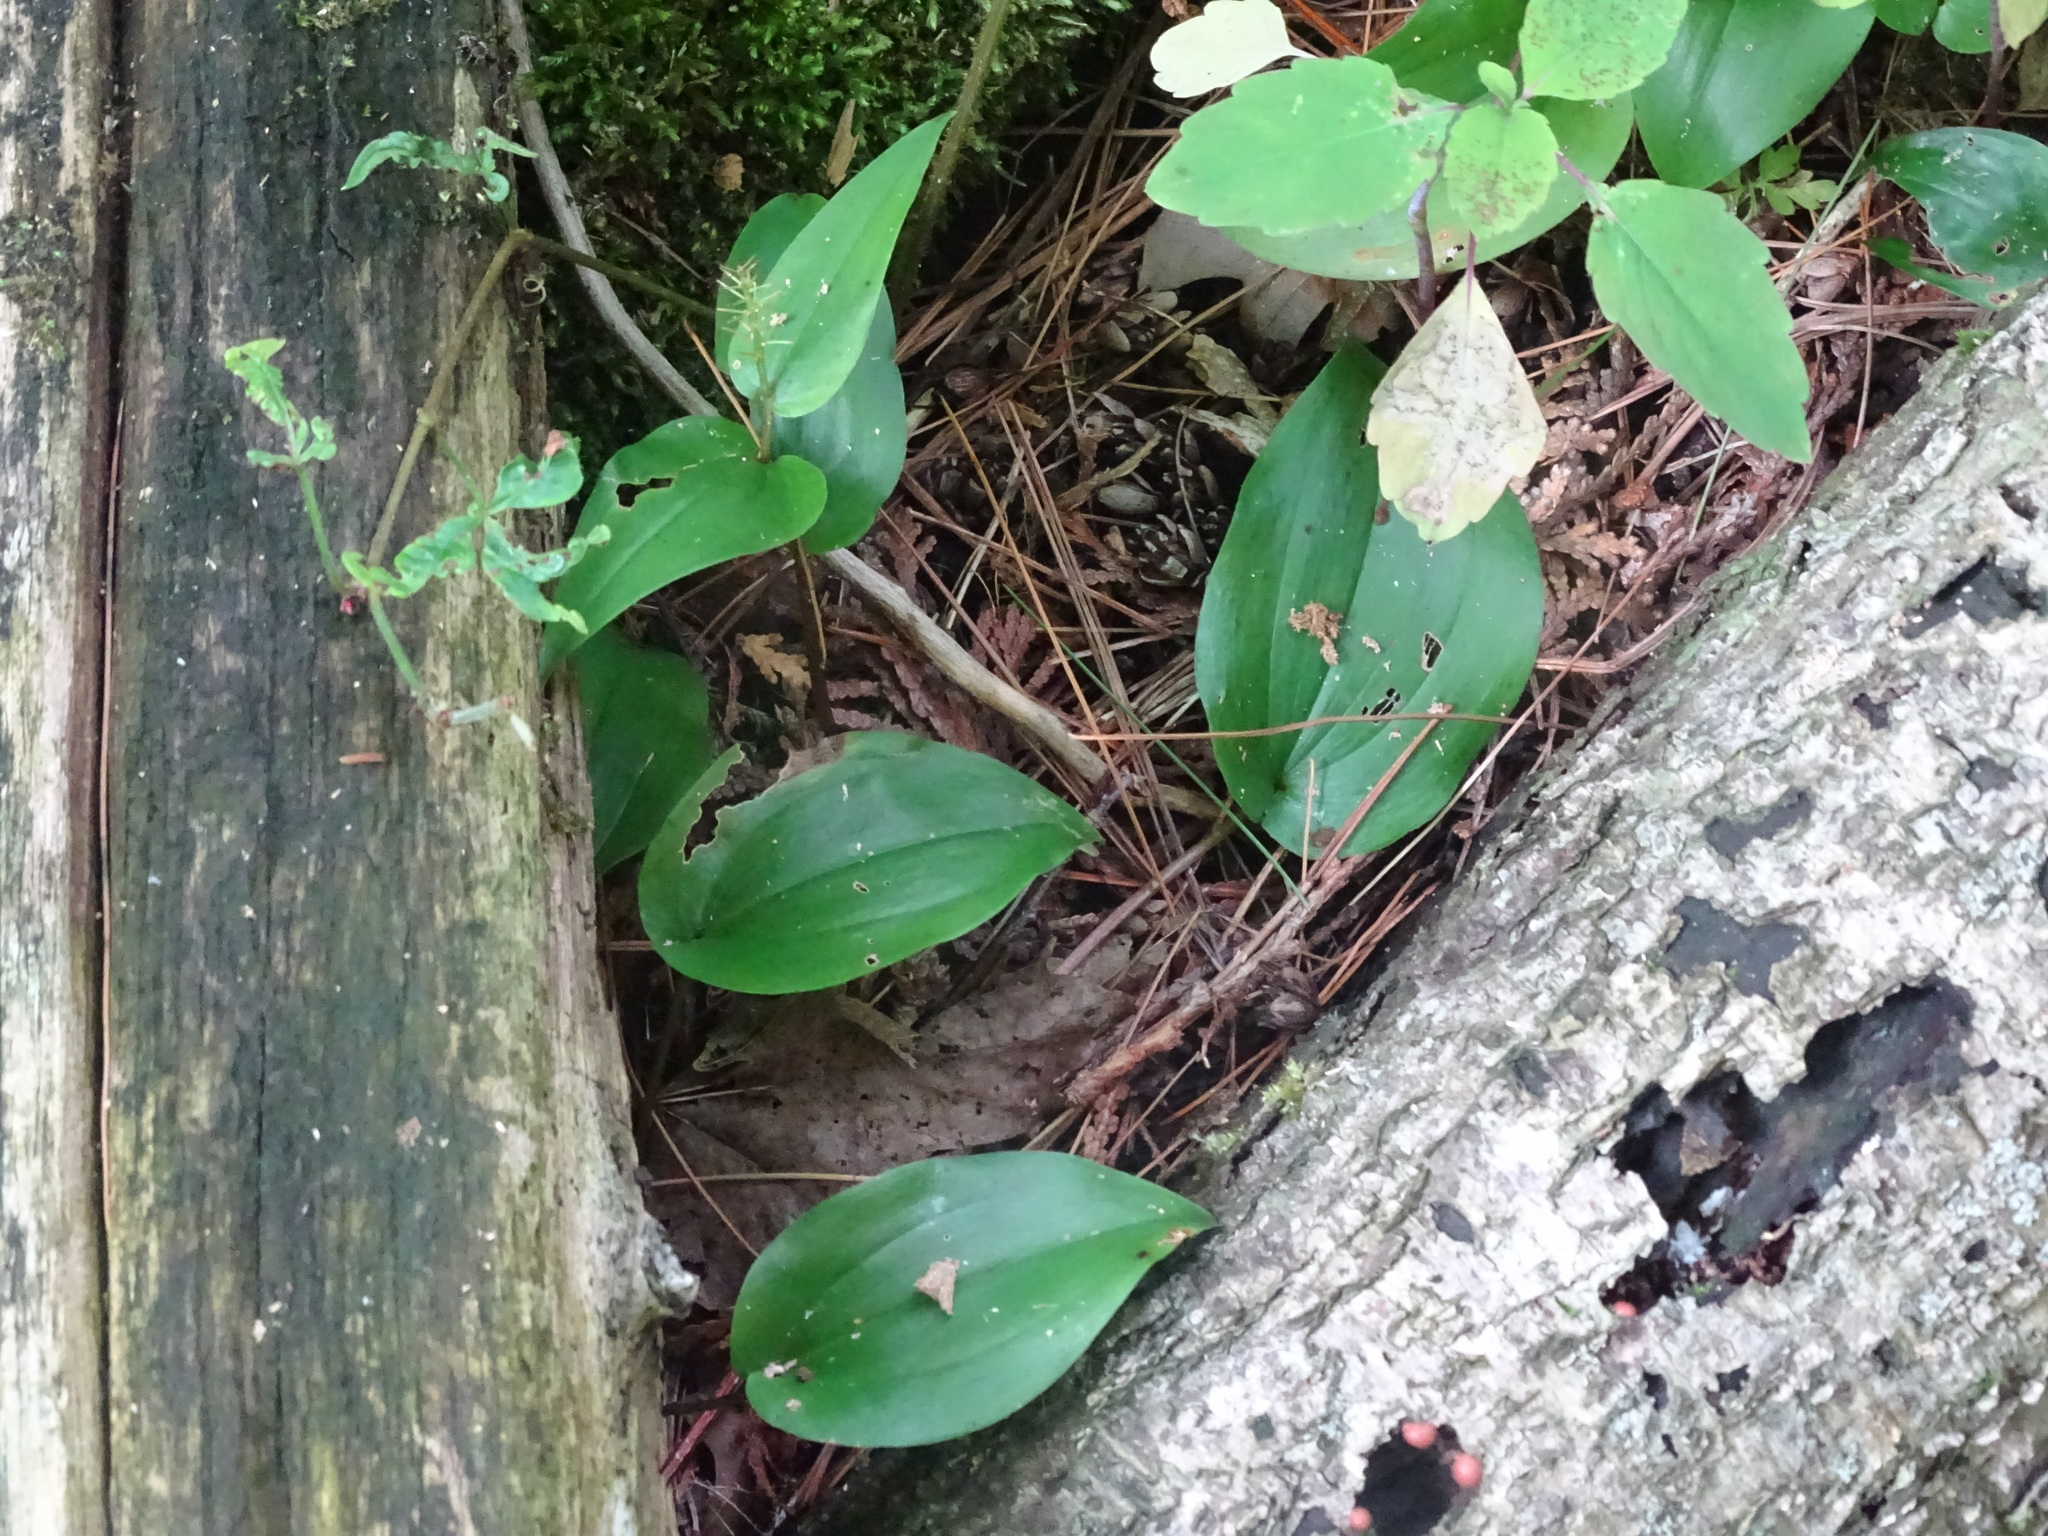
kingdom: Plantae
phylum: Tracheophyta
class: Liliopsida
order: Asparagales
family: Asparagaceae
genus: Maianthemum
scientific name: Maianthemum canadense
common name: False lily-of-the-valley
